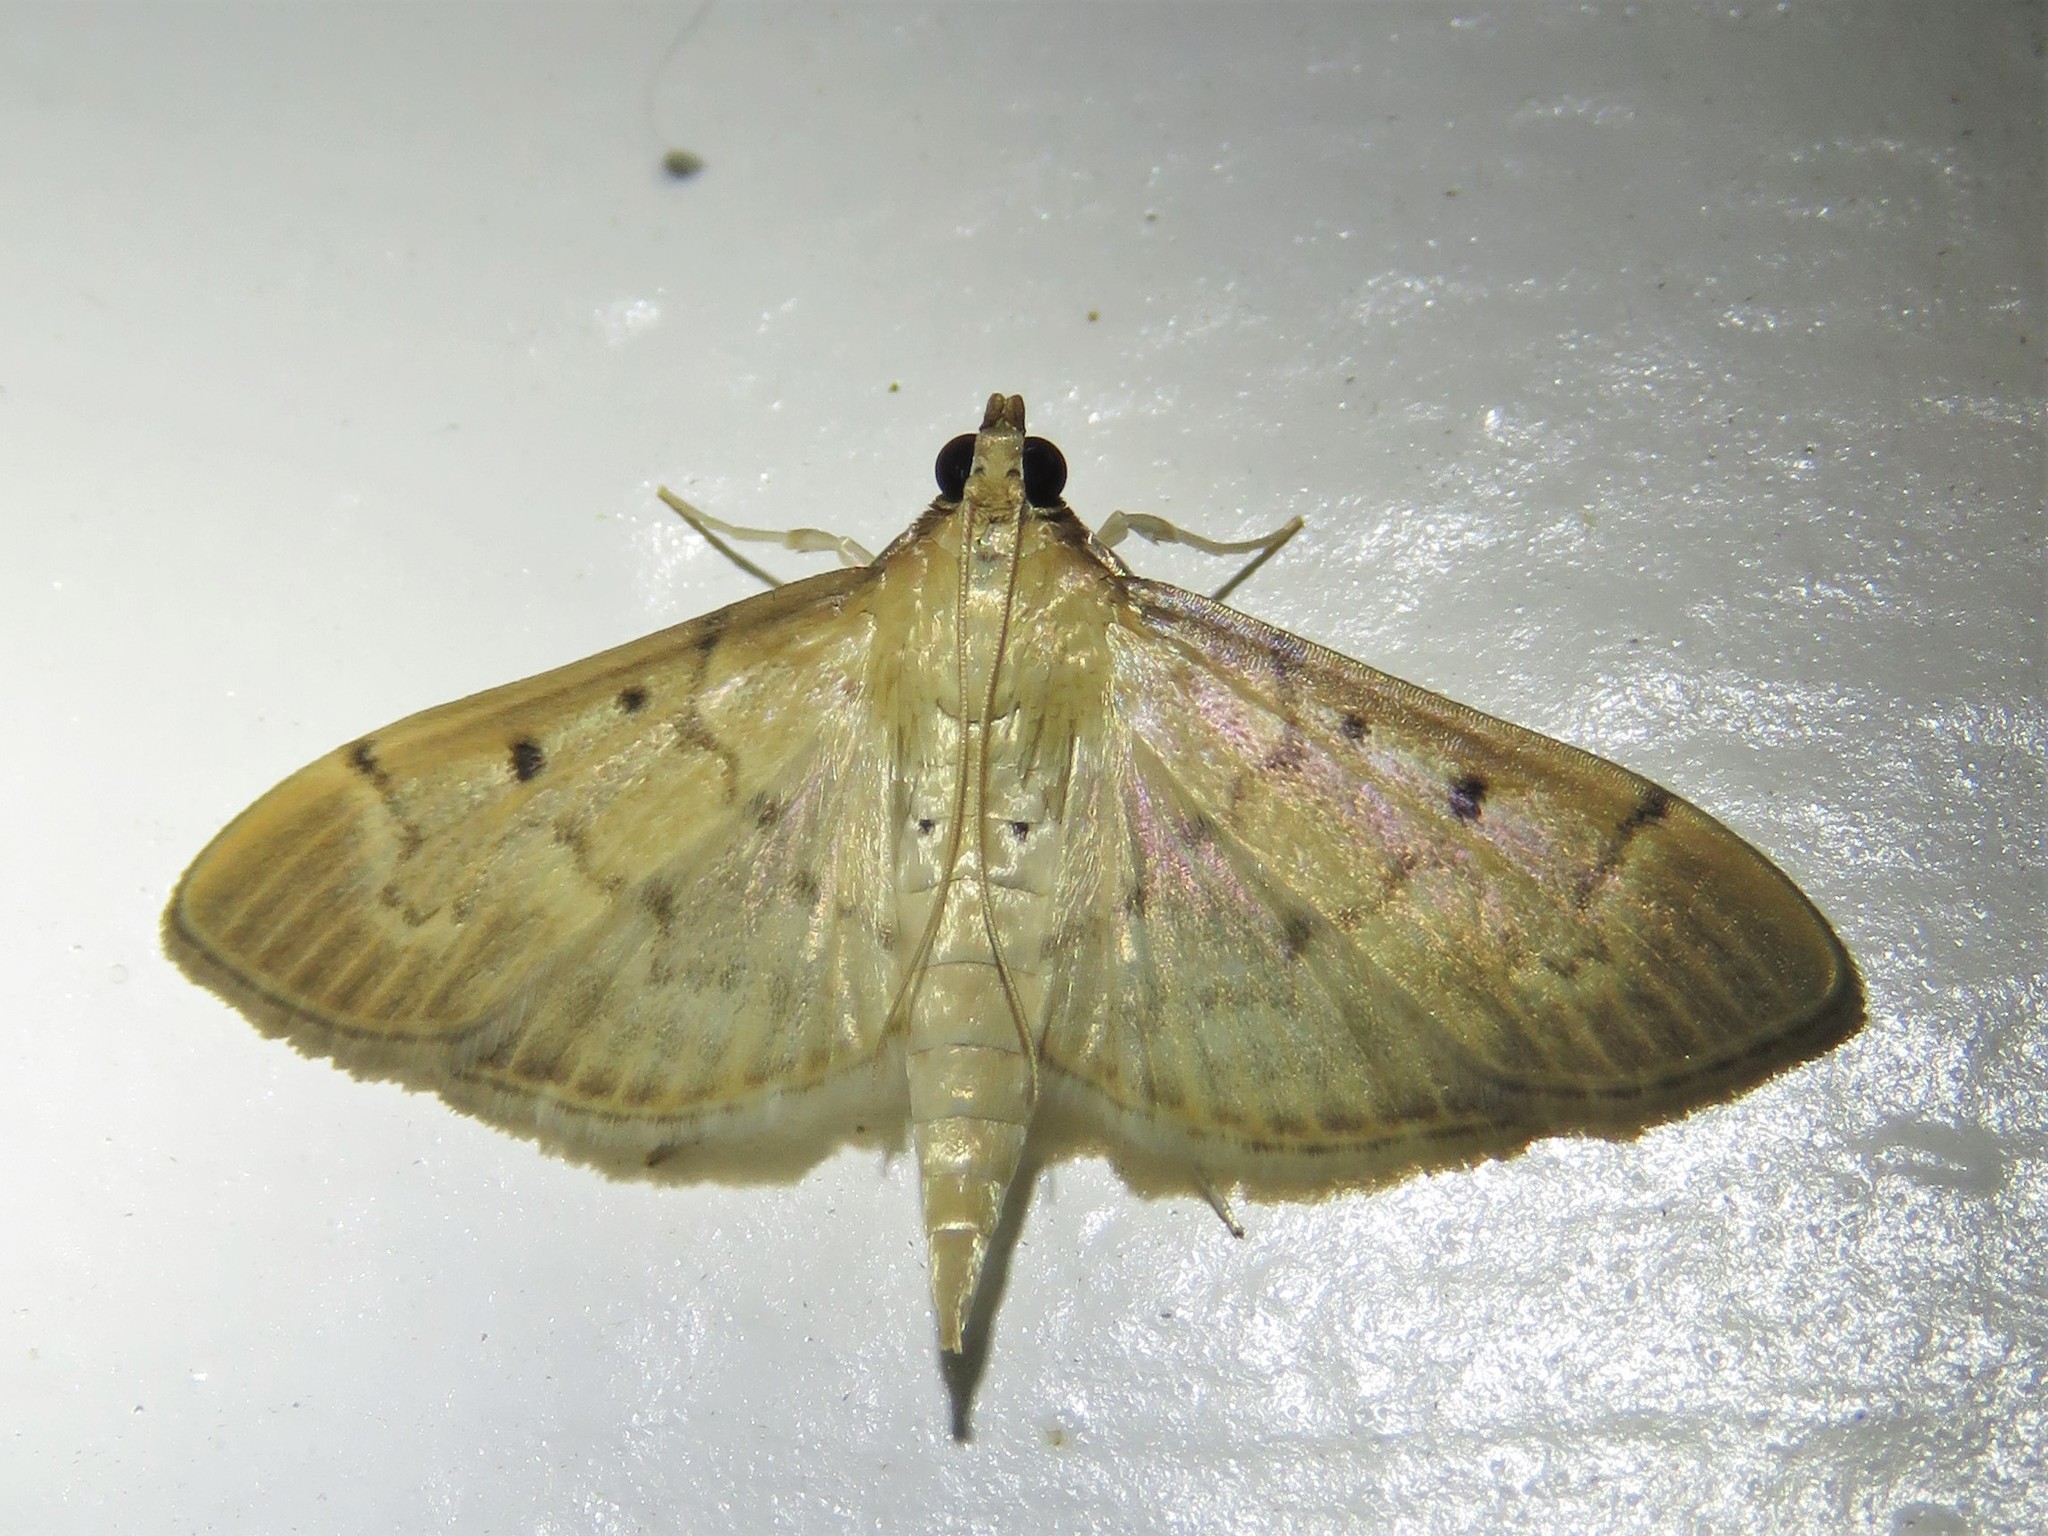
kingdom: Animalia
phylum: Arthropoda
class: Insecta
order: Lepidoptera
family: Crambidae
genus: Herpetogramma
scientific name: Herpetogramma bipunctalis
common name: Southern beet webworm
